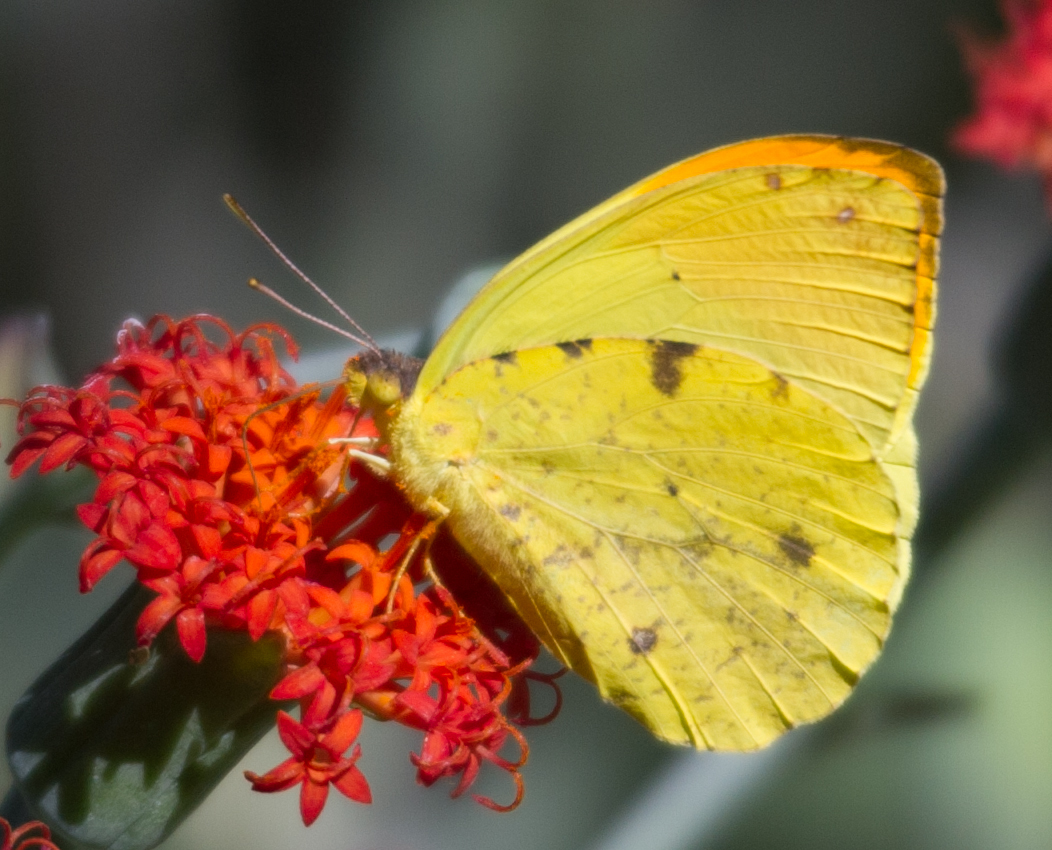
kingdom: Animalia
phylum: Arthropoda
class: Insecta
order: Lepidoptera
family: Pieridae
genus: Eronia
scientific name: Eronia leda
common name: Autumn leaf vagrant
